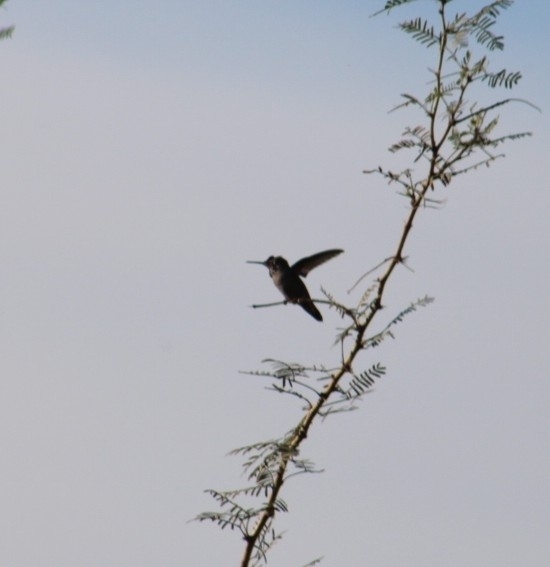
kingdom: Animalia
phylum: Chordata
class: Aves
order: Apodiformes
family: Trochilidae
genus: Calypte
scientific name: Calypte anna
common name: Anna's hummingbird
